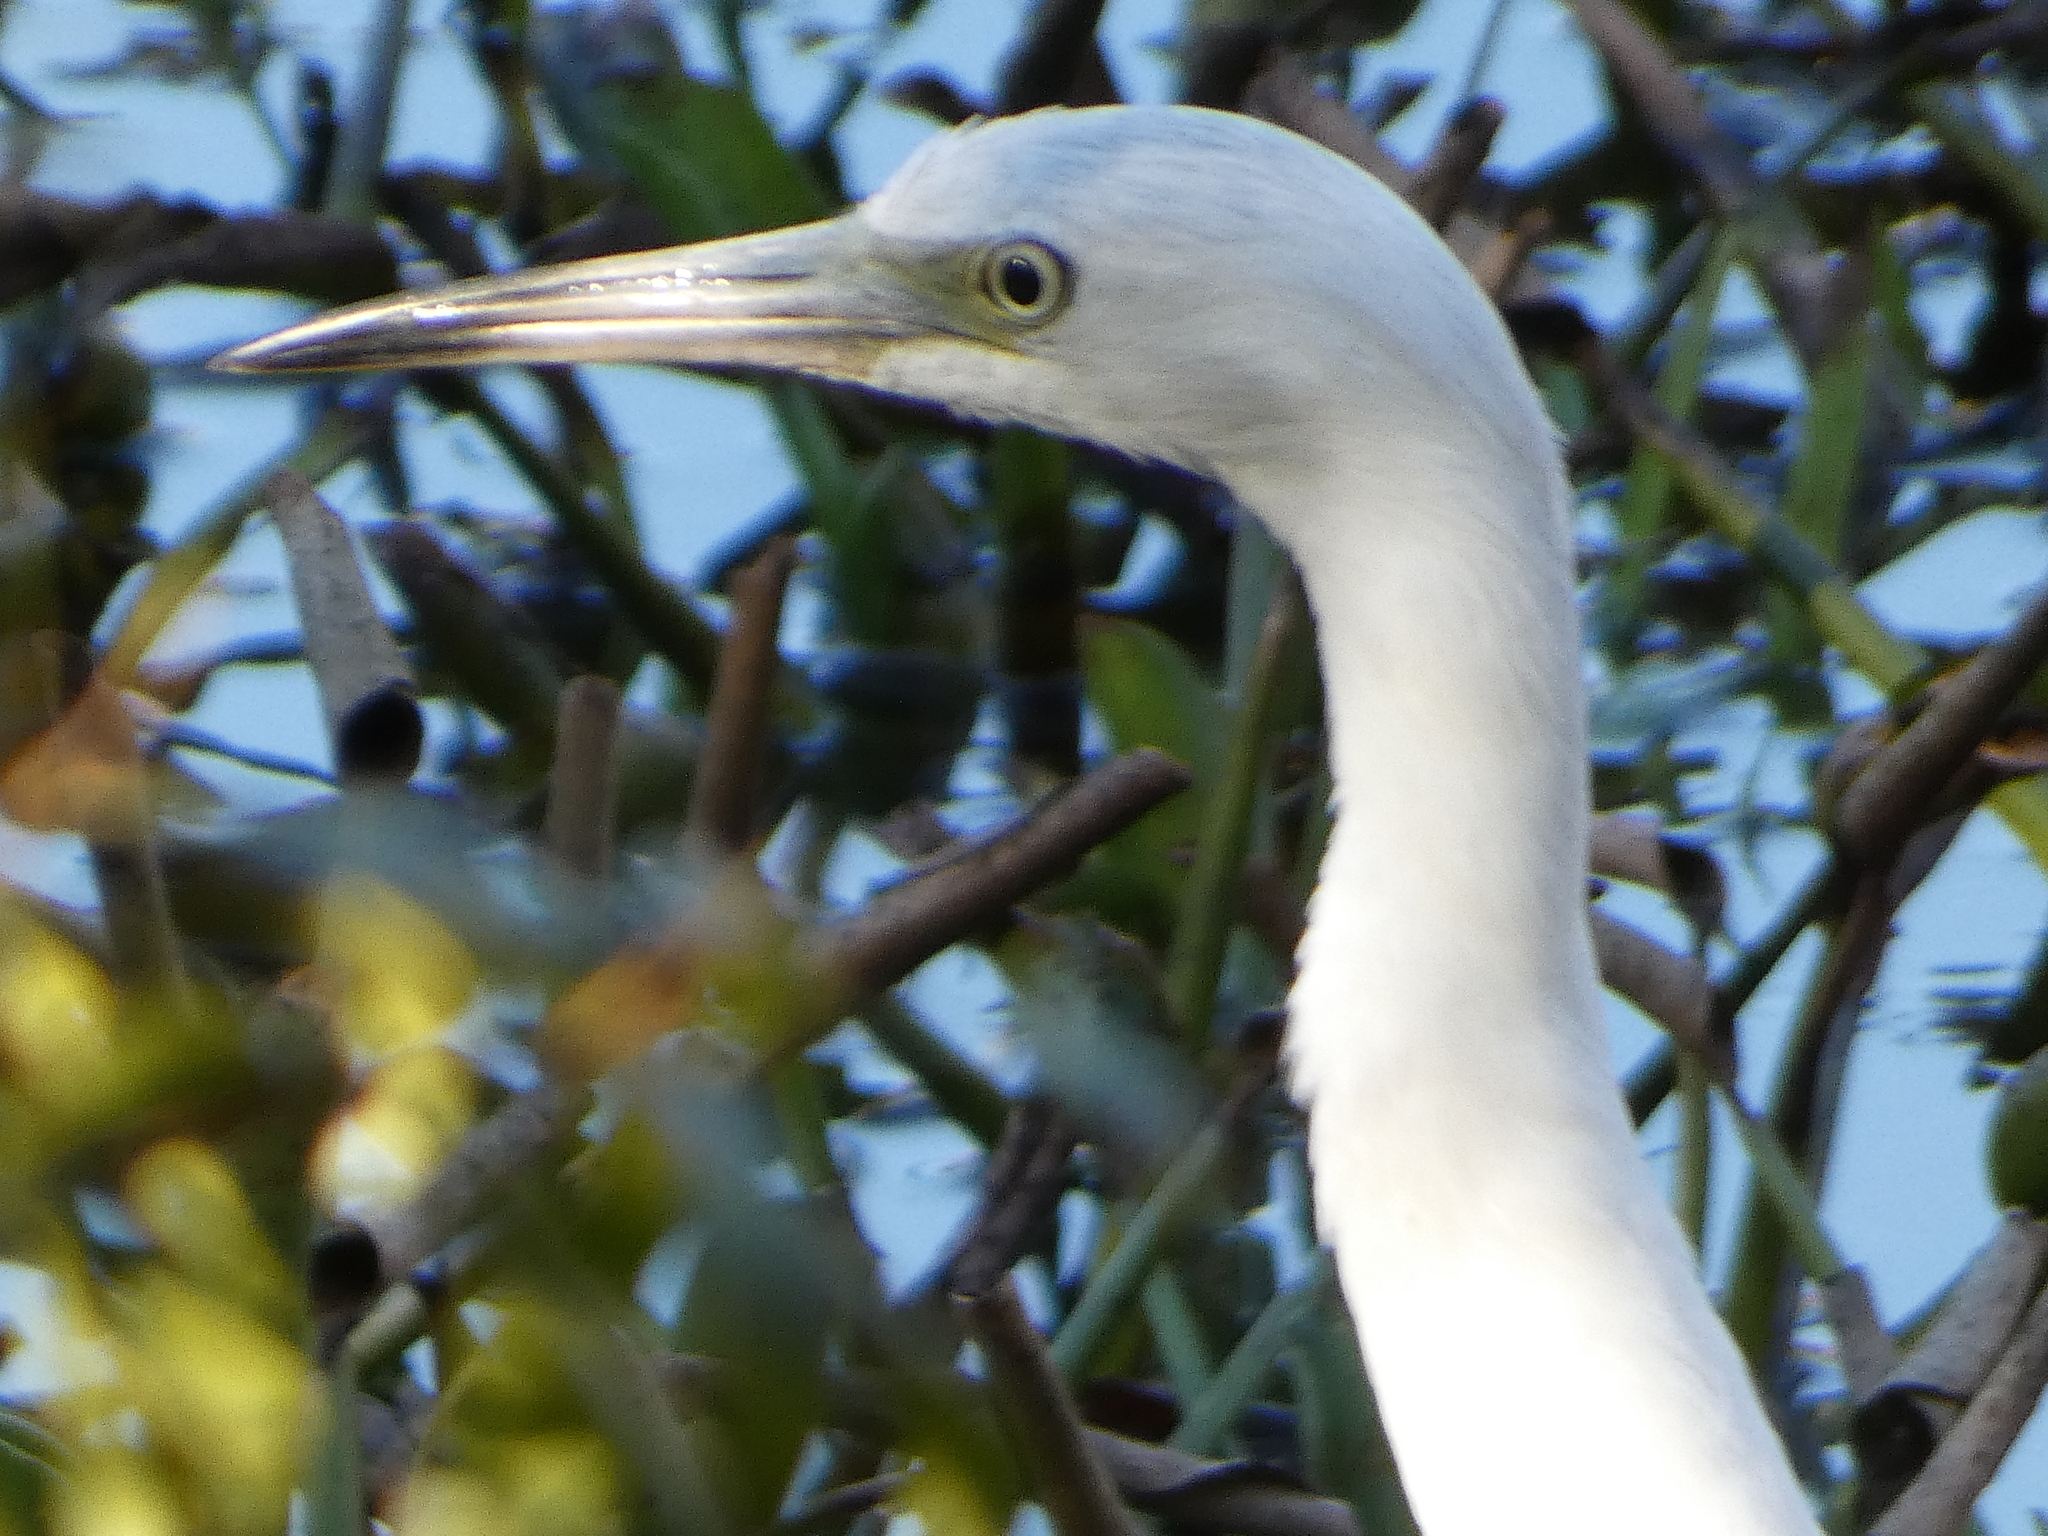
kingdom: Animalia
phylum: Chordata
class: Aves
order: Pelecaniformes
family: Ardeidae
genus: Egretta
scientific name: Egretta caerulea
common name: Little blue heron
